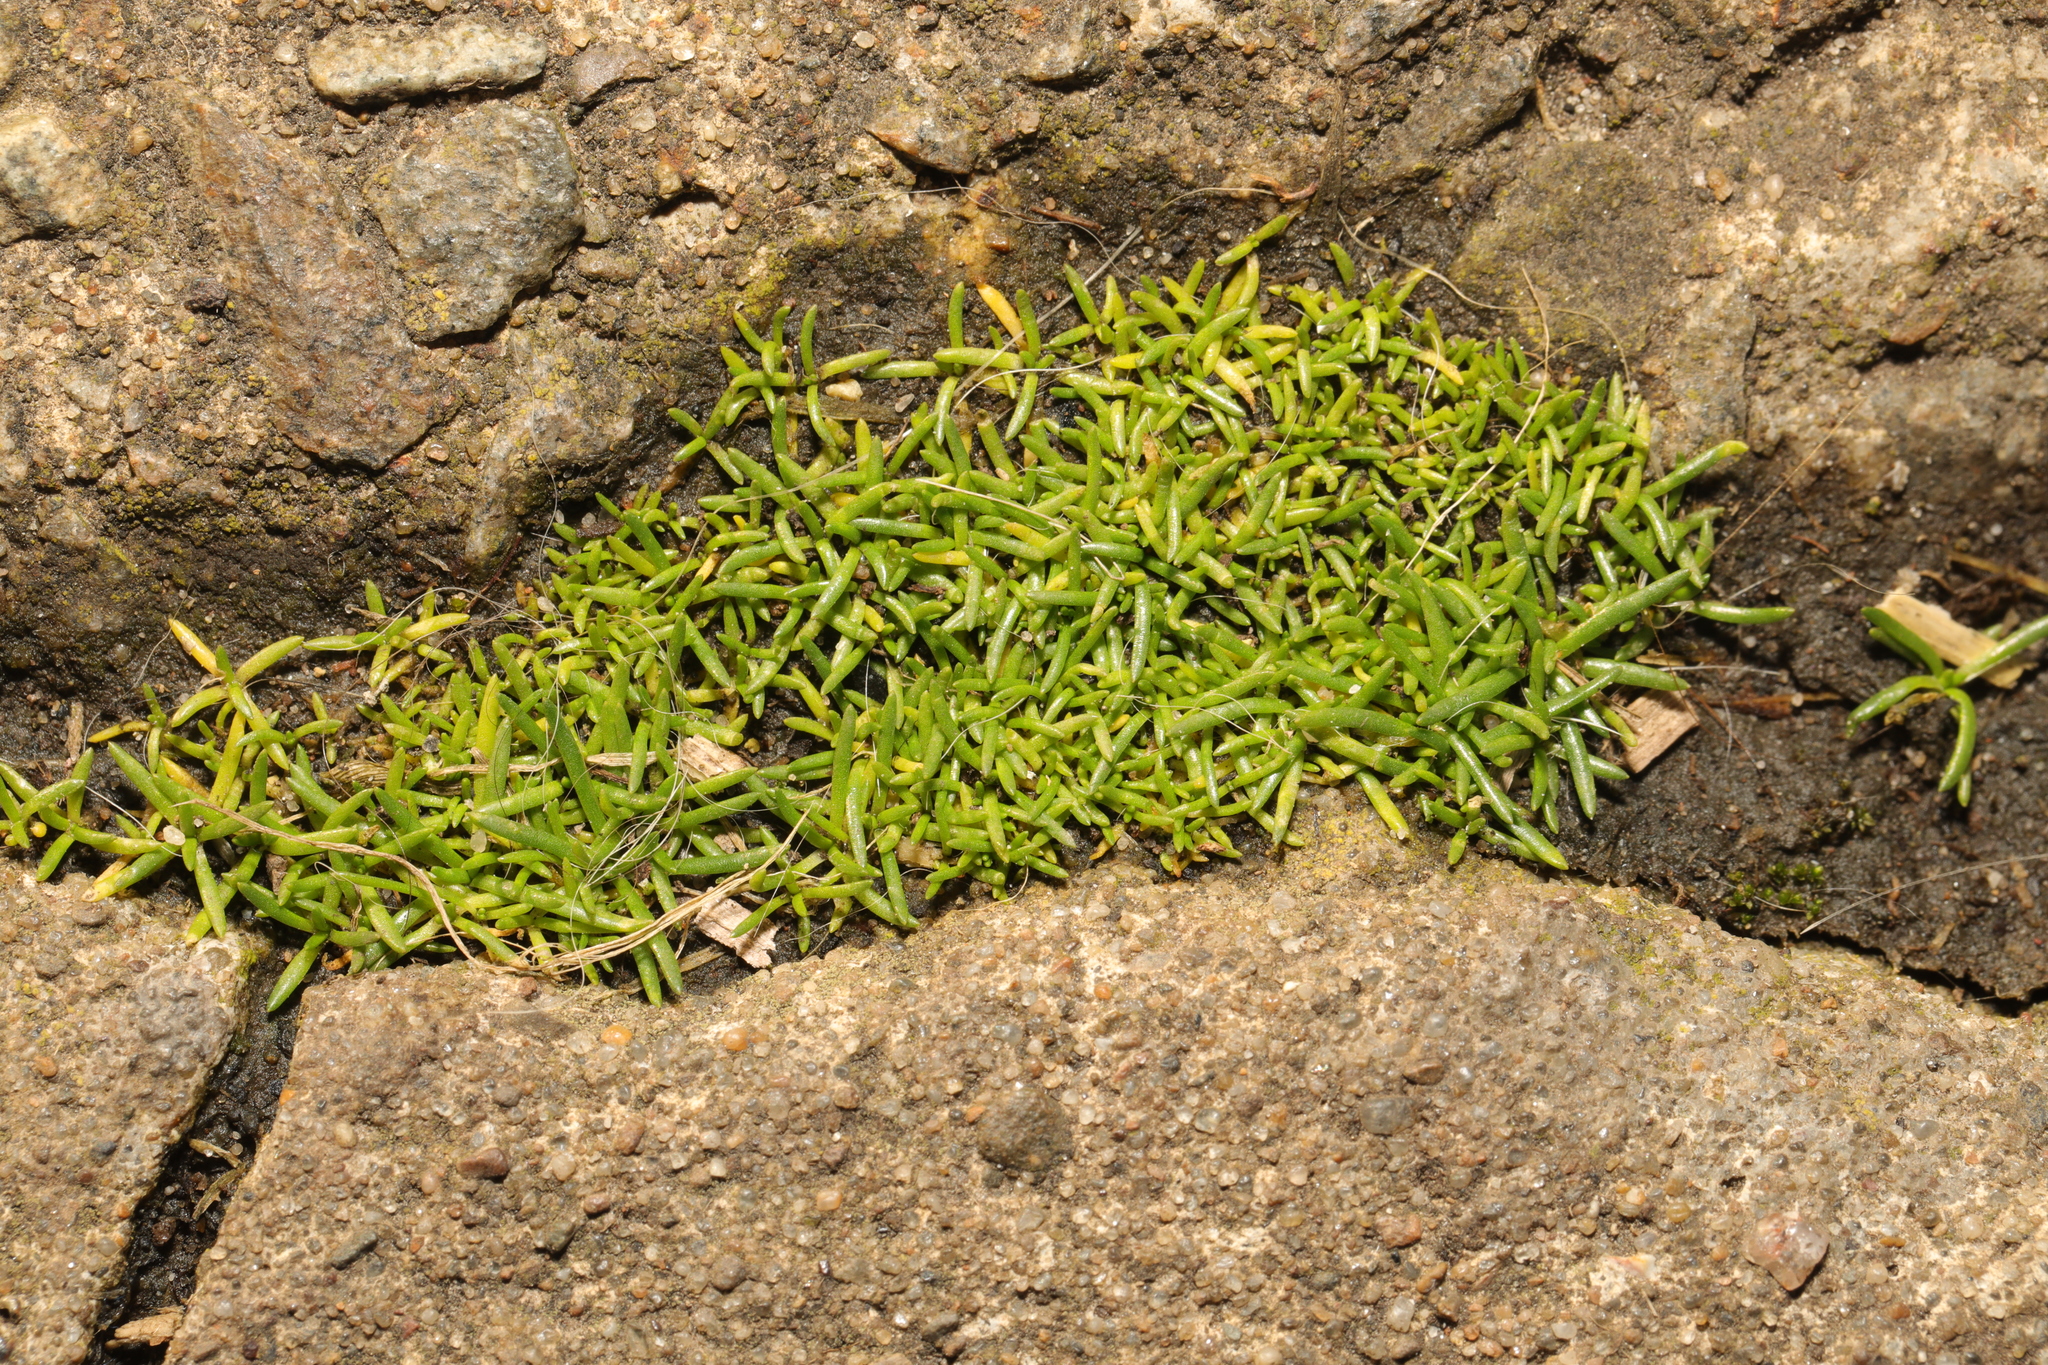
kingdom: Plantae
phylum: Tracheophyta
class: Magnoliopsida
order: Caryophyllales
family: Caryophyllaceae
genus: Sagina
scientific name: Sagina procumbens
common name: Procumbent pearlwort
